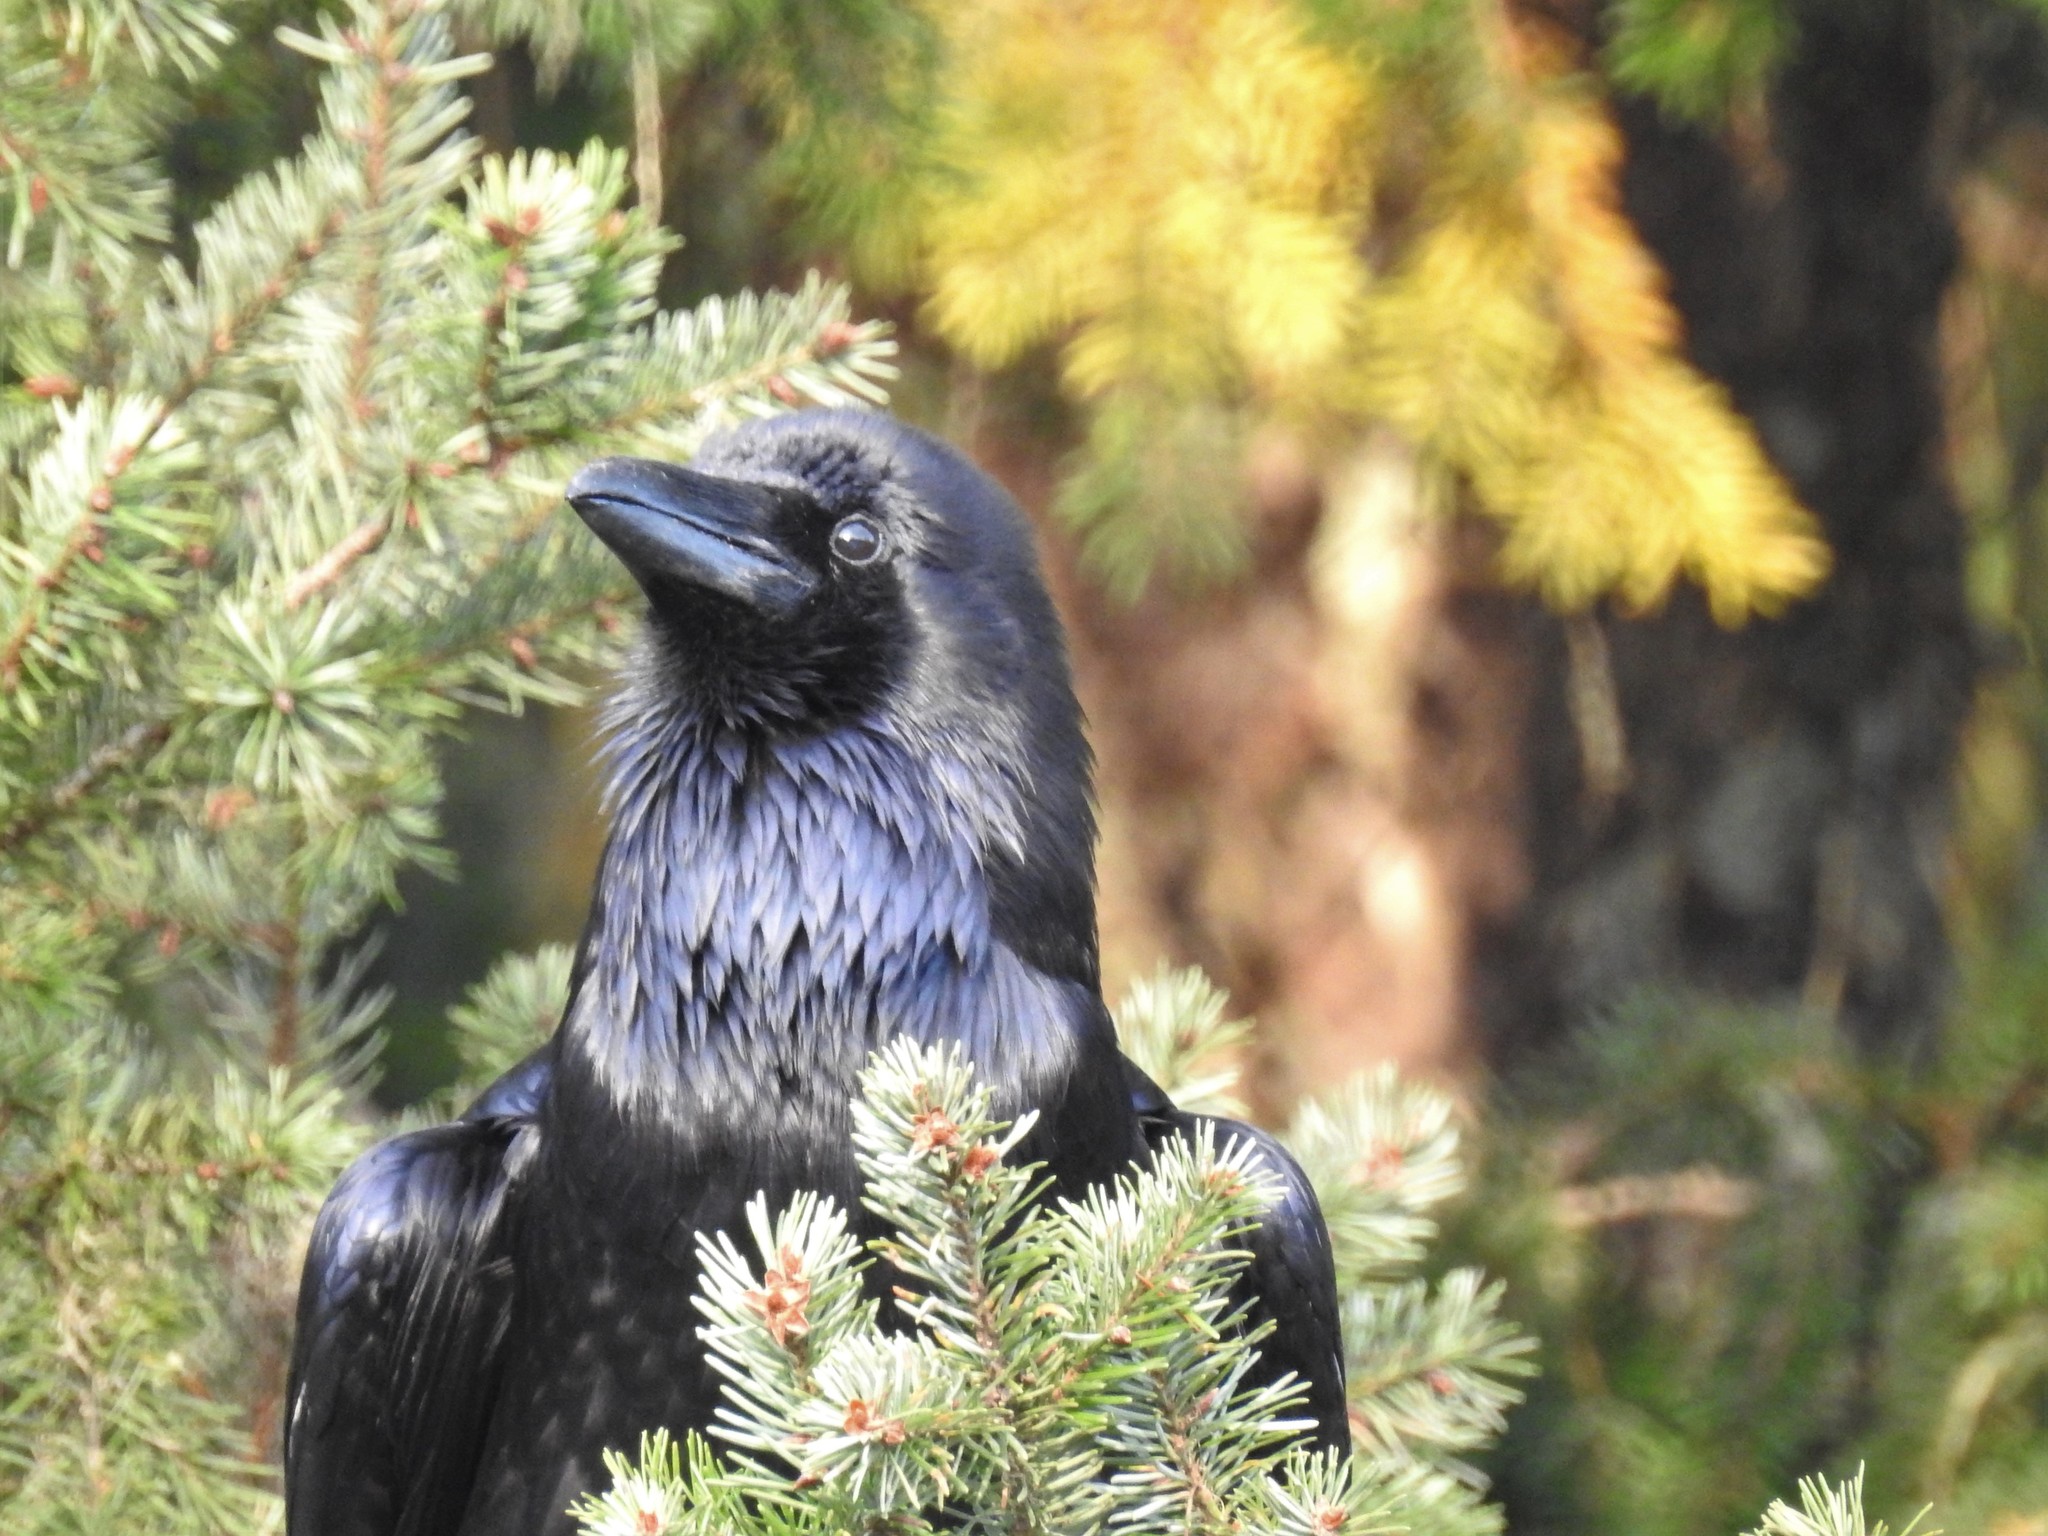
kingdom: Animalia
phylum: Chordata
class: Aves
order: Passeriformes
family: Corvidae
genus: Corvus
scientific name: Corvus corax
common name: Common raven
